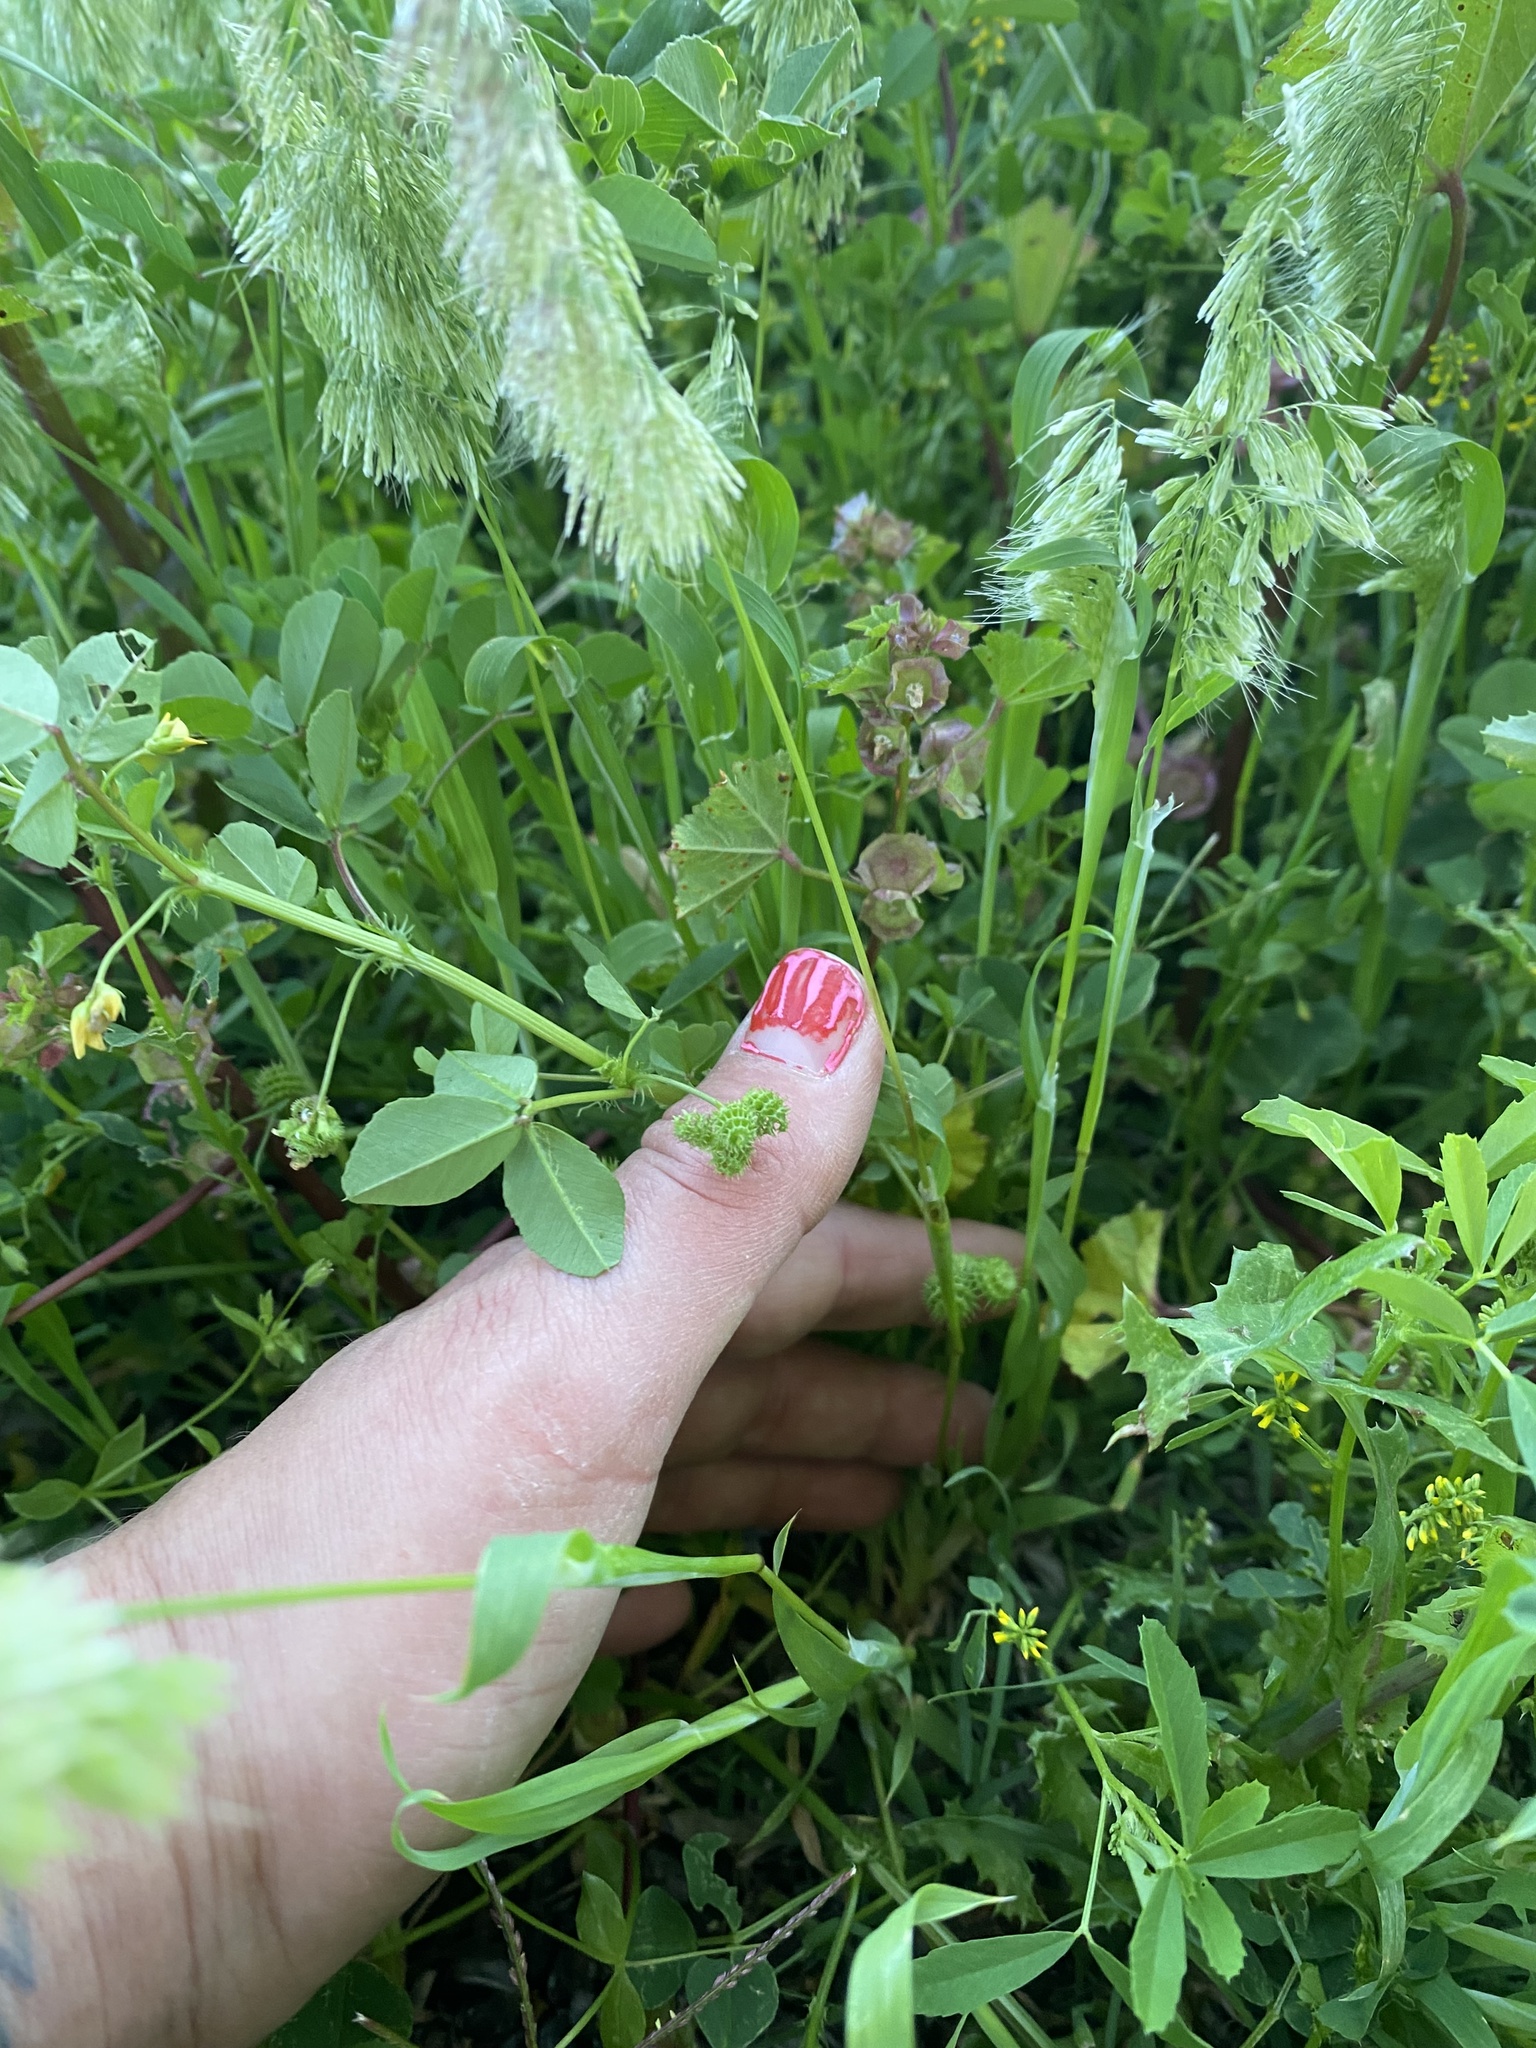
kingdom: Plantae
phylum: Tracheophyta
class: Liliopsida
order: Poales
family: Poaceae
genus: Lamarckia
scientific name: Lamarckia aurea
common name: Golden dog's-tail
